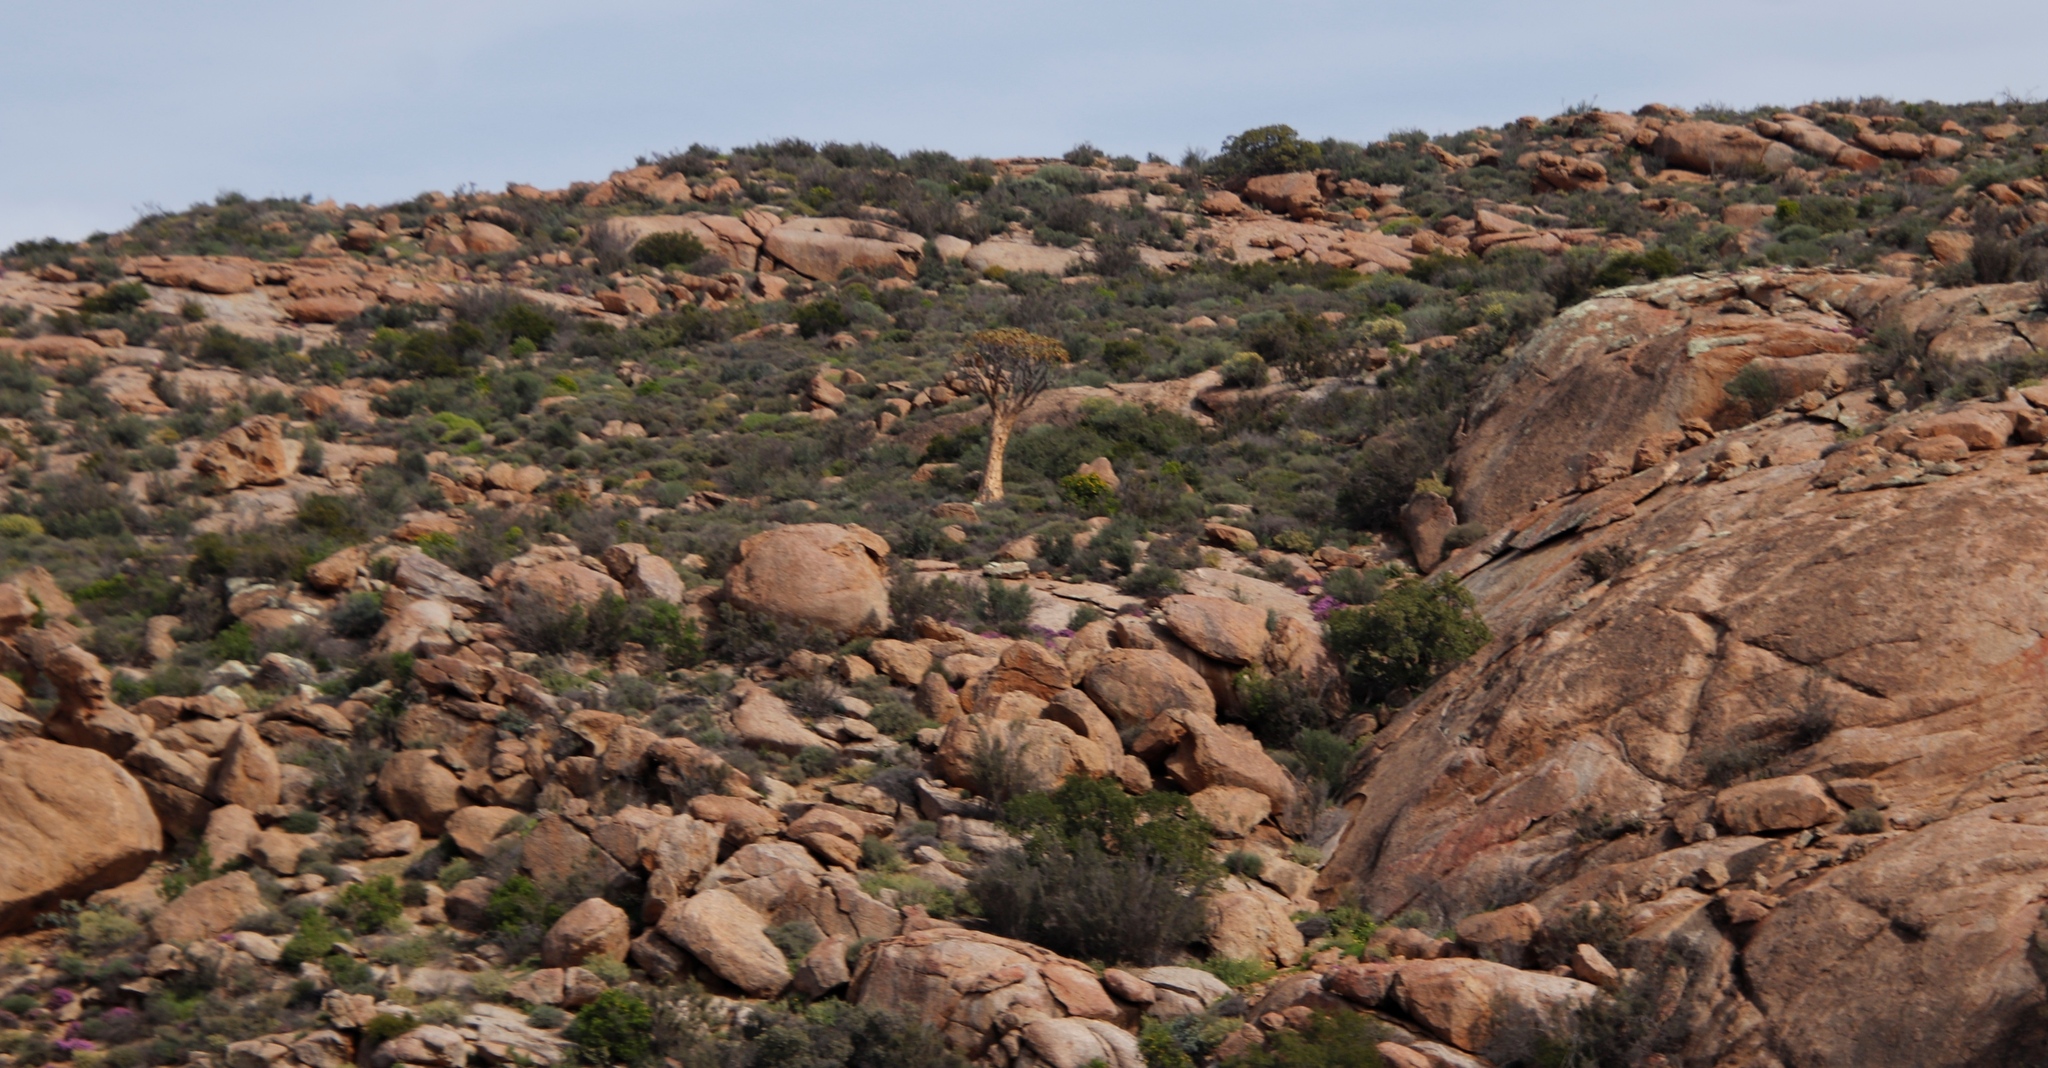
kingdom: Plantae
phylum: Tracheophyta
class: Liliopsida
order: Asparagales
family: Asphodelaceae
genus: Aloidendron
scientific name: Aloidendron dichotomum
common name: Quiver tree
